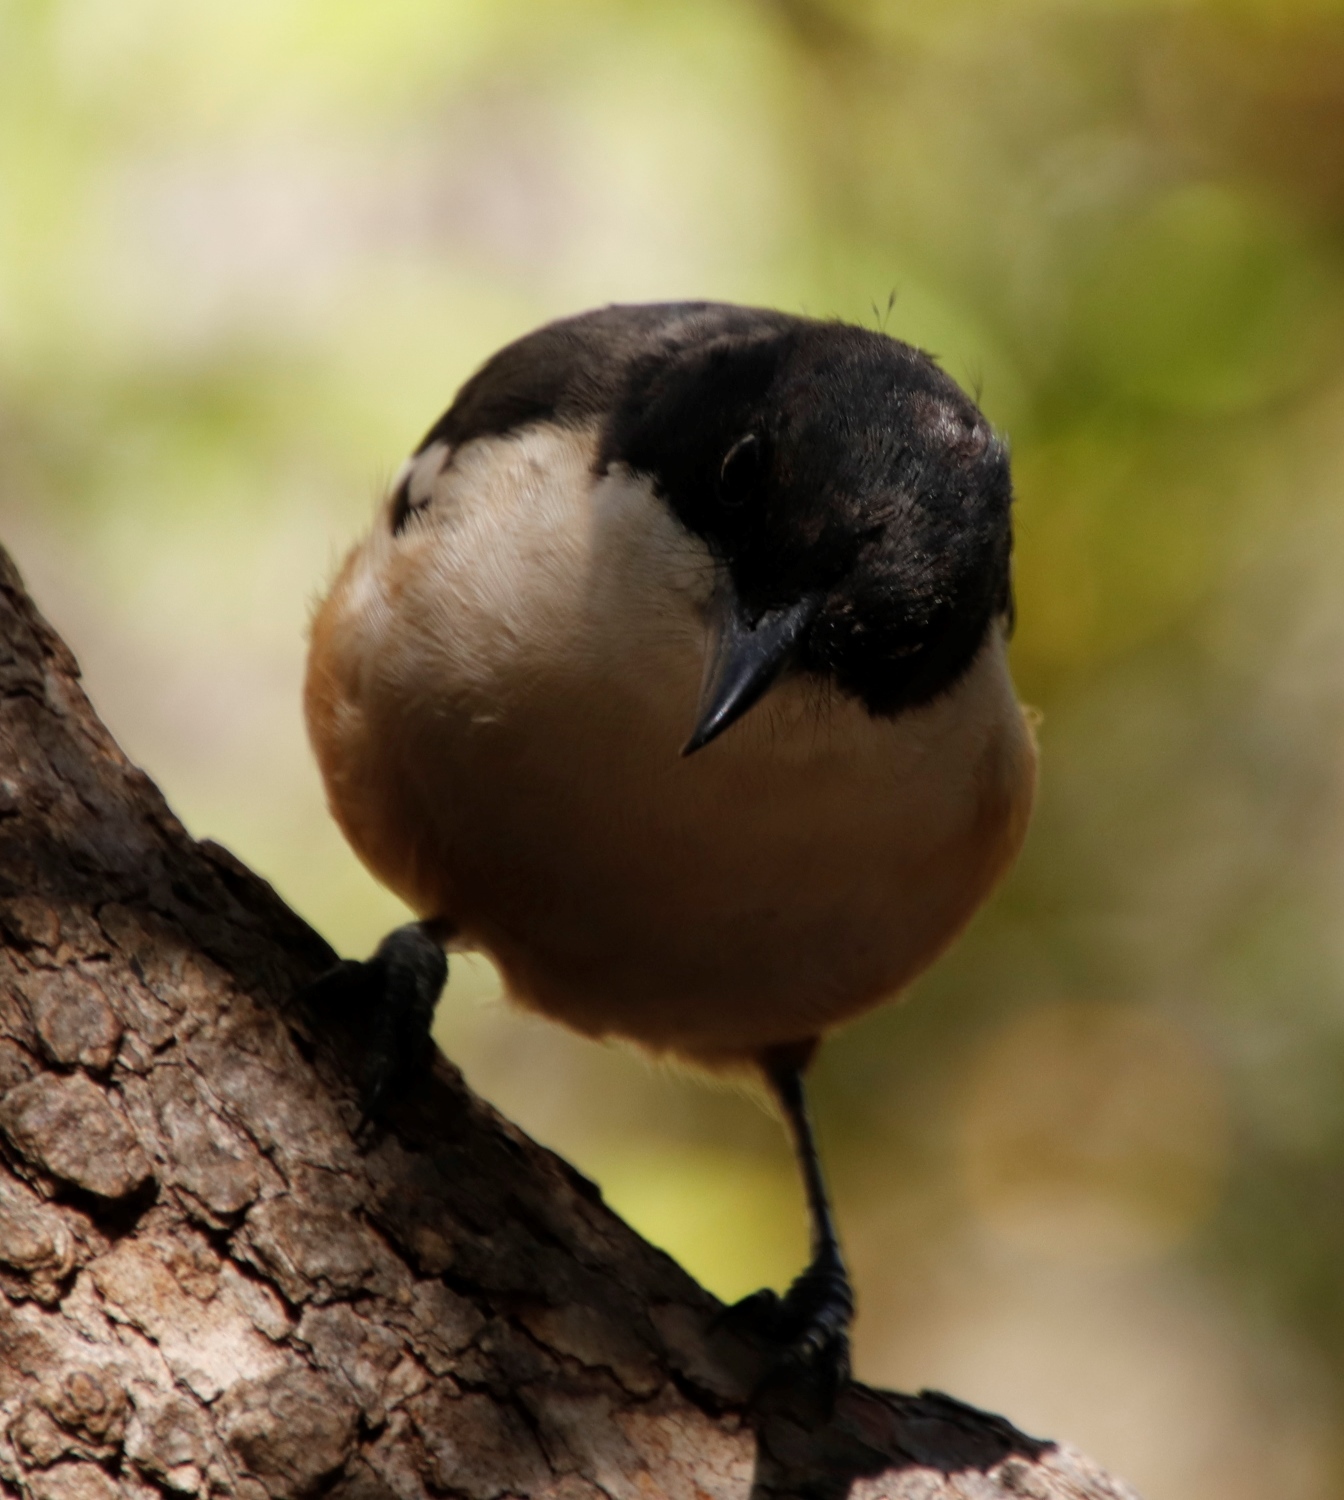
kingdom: Animalia
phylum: Chordata
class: Aves
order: Passeriformes
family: Malaconotidae
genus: Laniarius
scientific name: Laniarius ferrugineus
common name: Southern boubou
